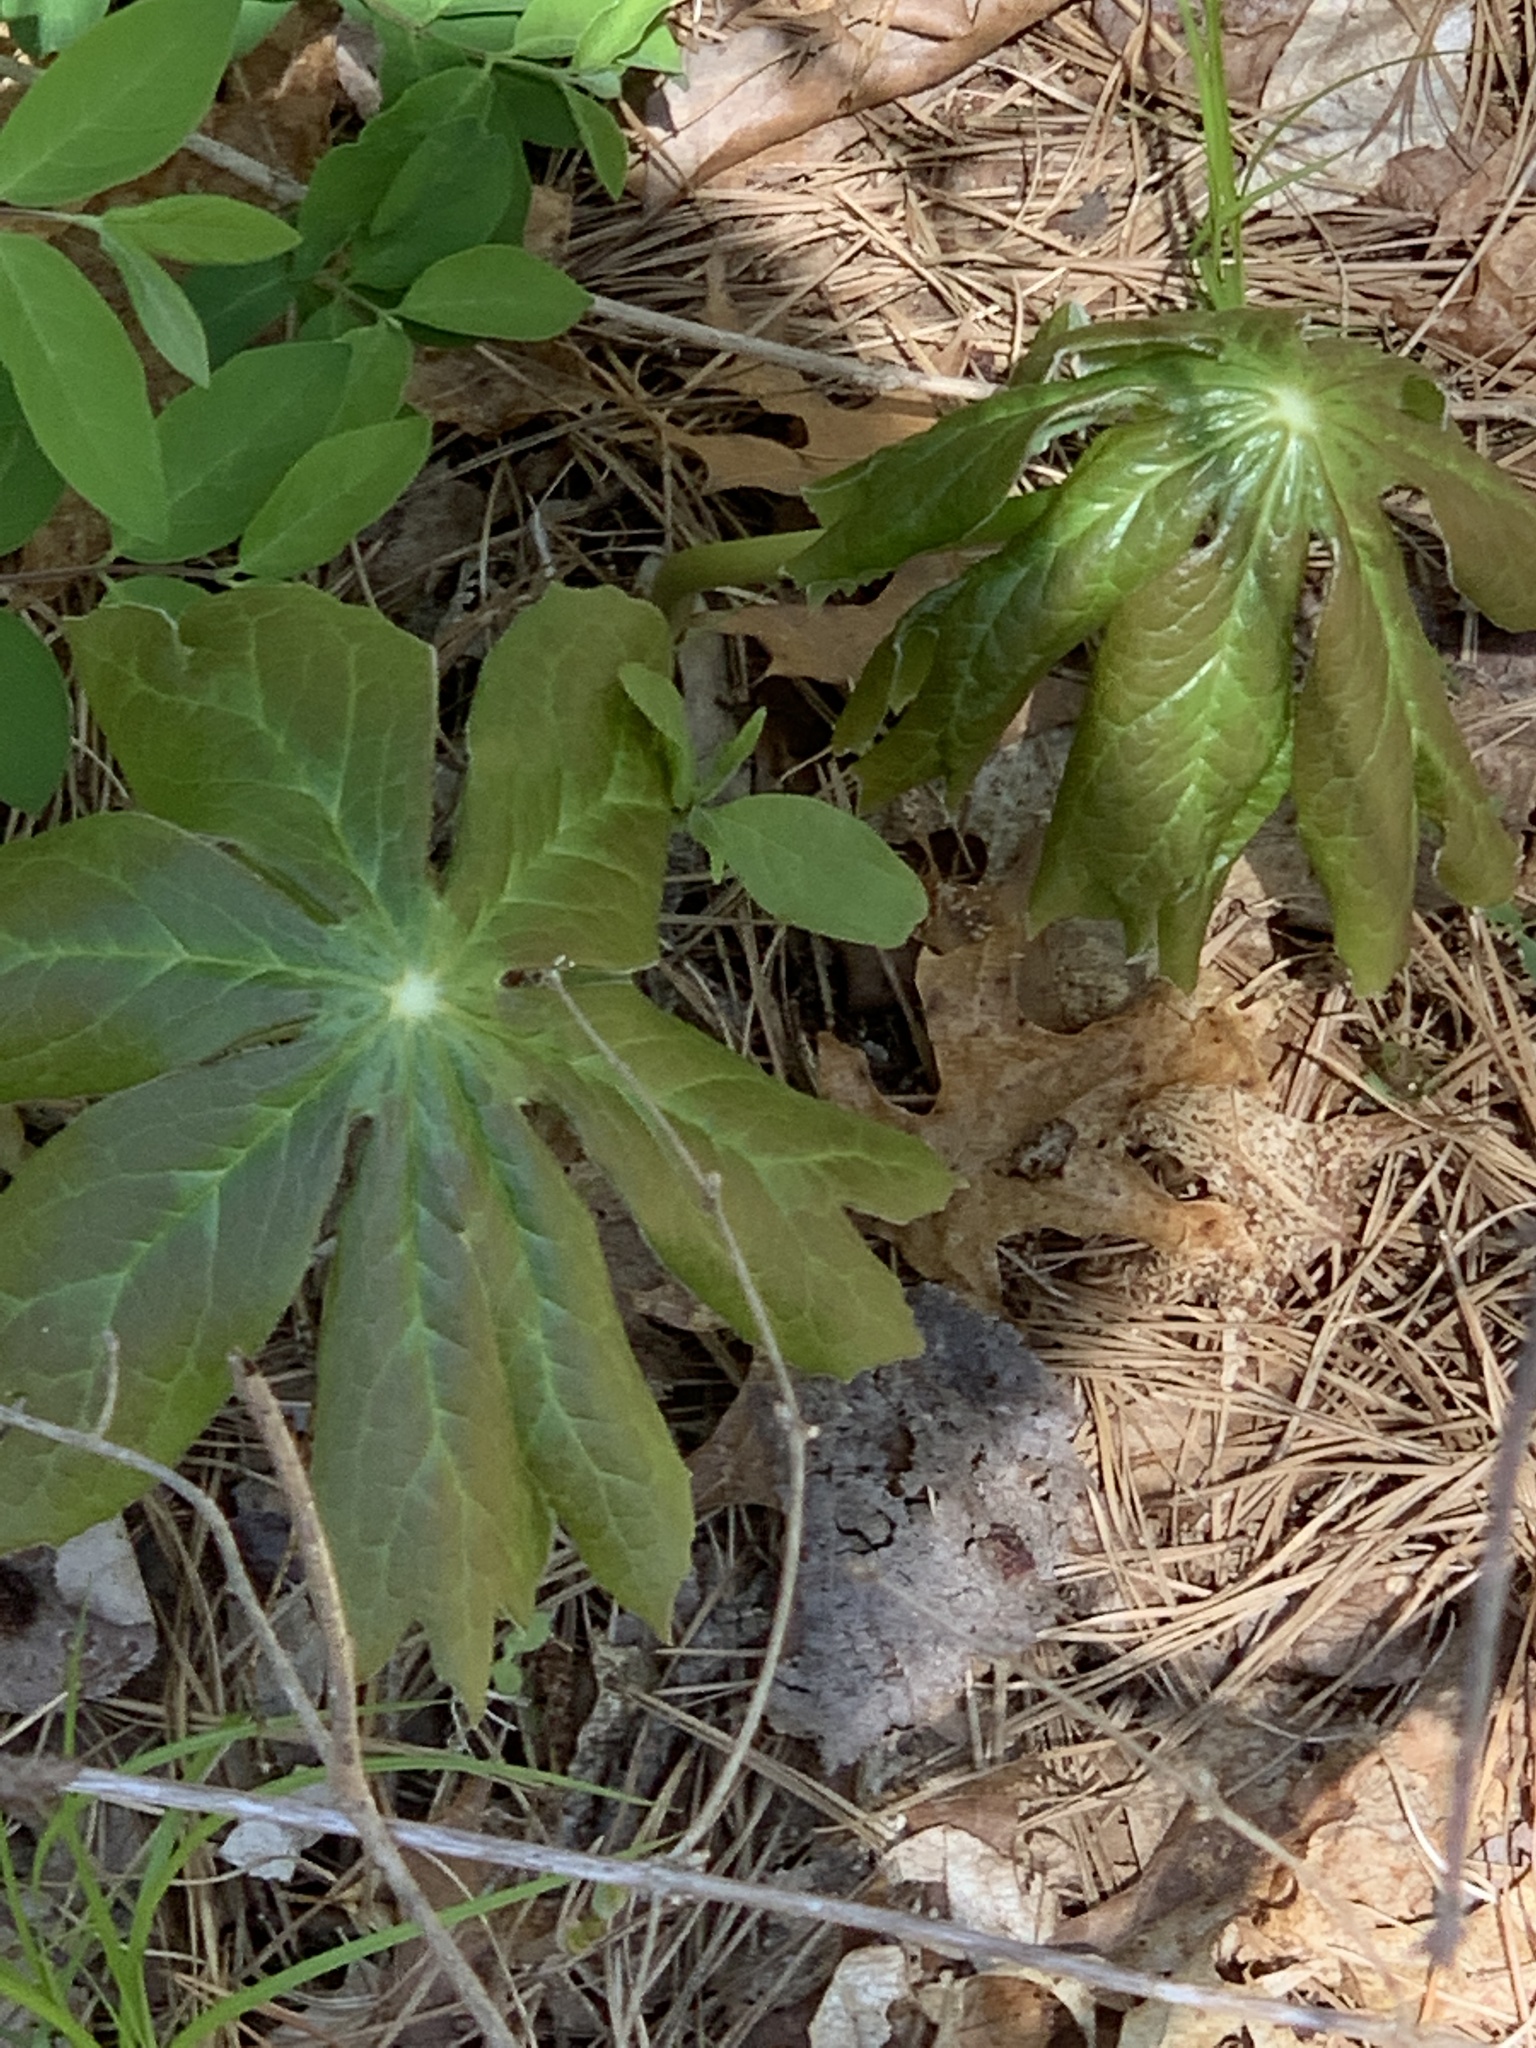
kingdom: Plantae
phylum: Tracheophyta
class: Magnoliopsida
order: Ranunculales
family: Berberidaceae
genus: Podophyllum
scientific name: Podophyllum peltatum
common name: Wild mandrake
